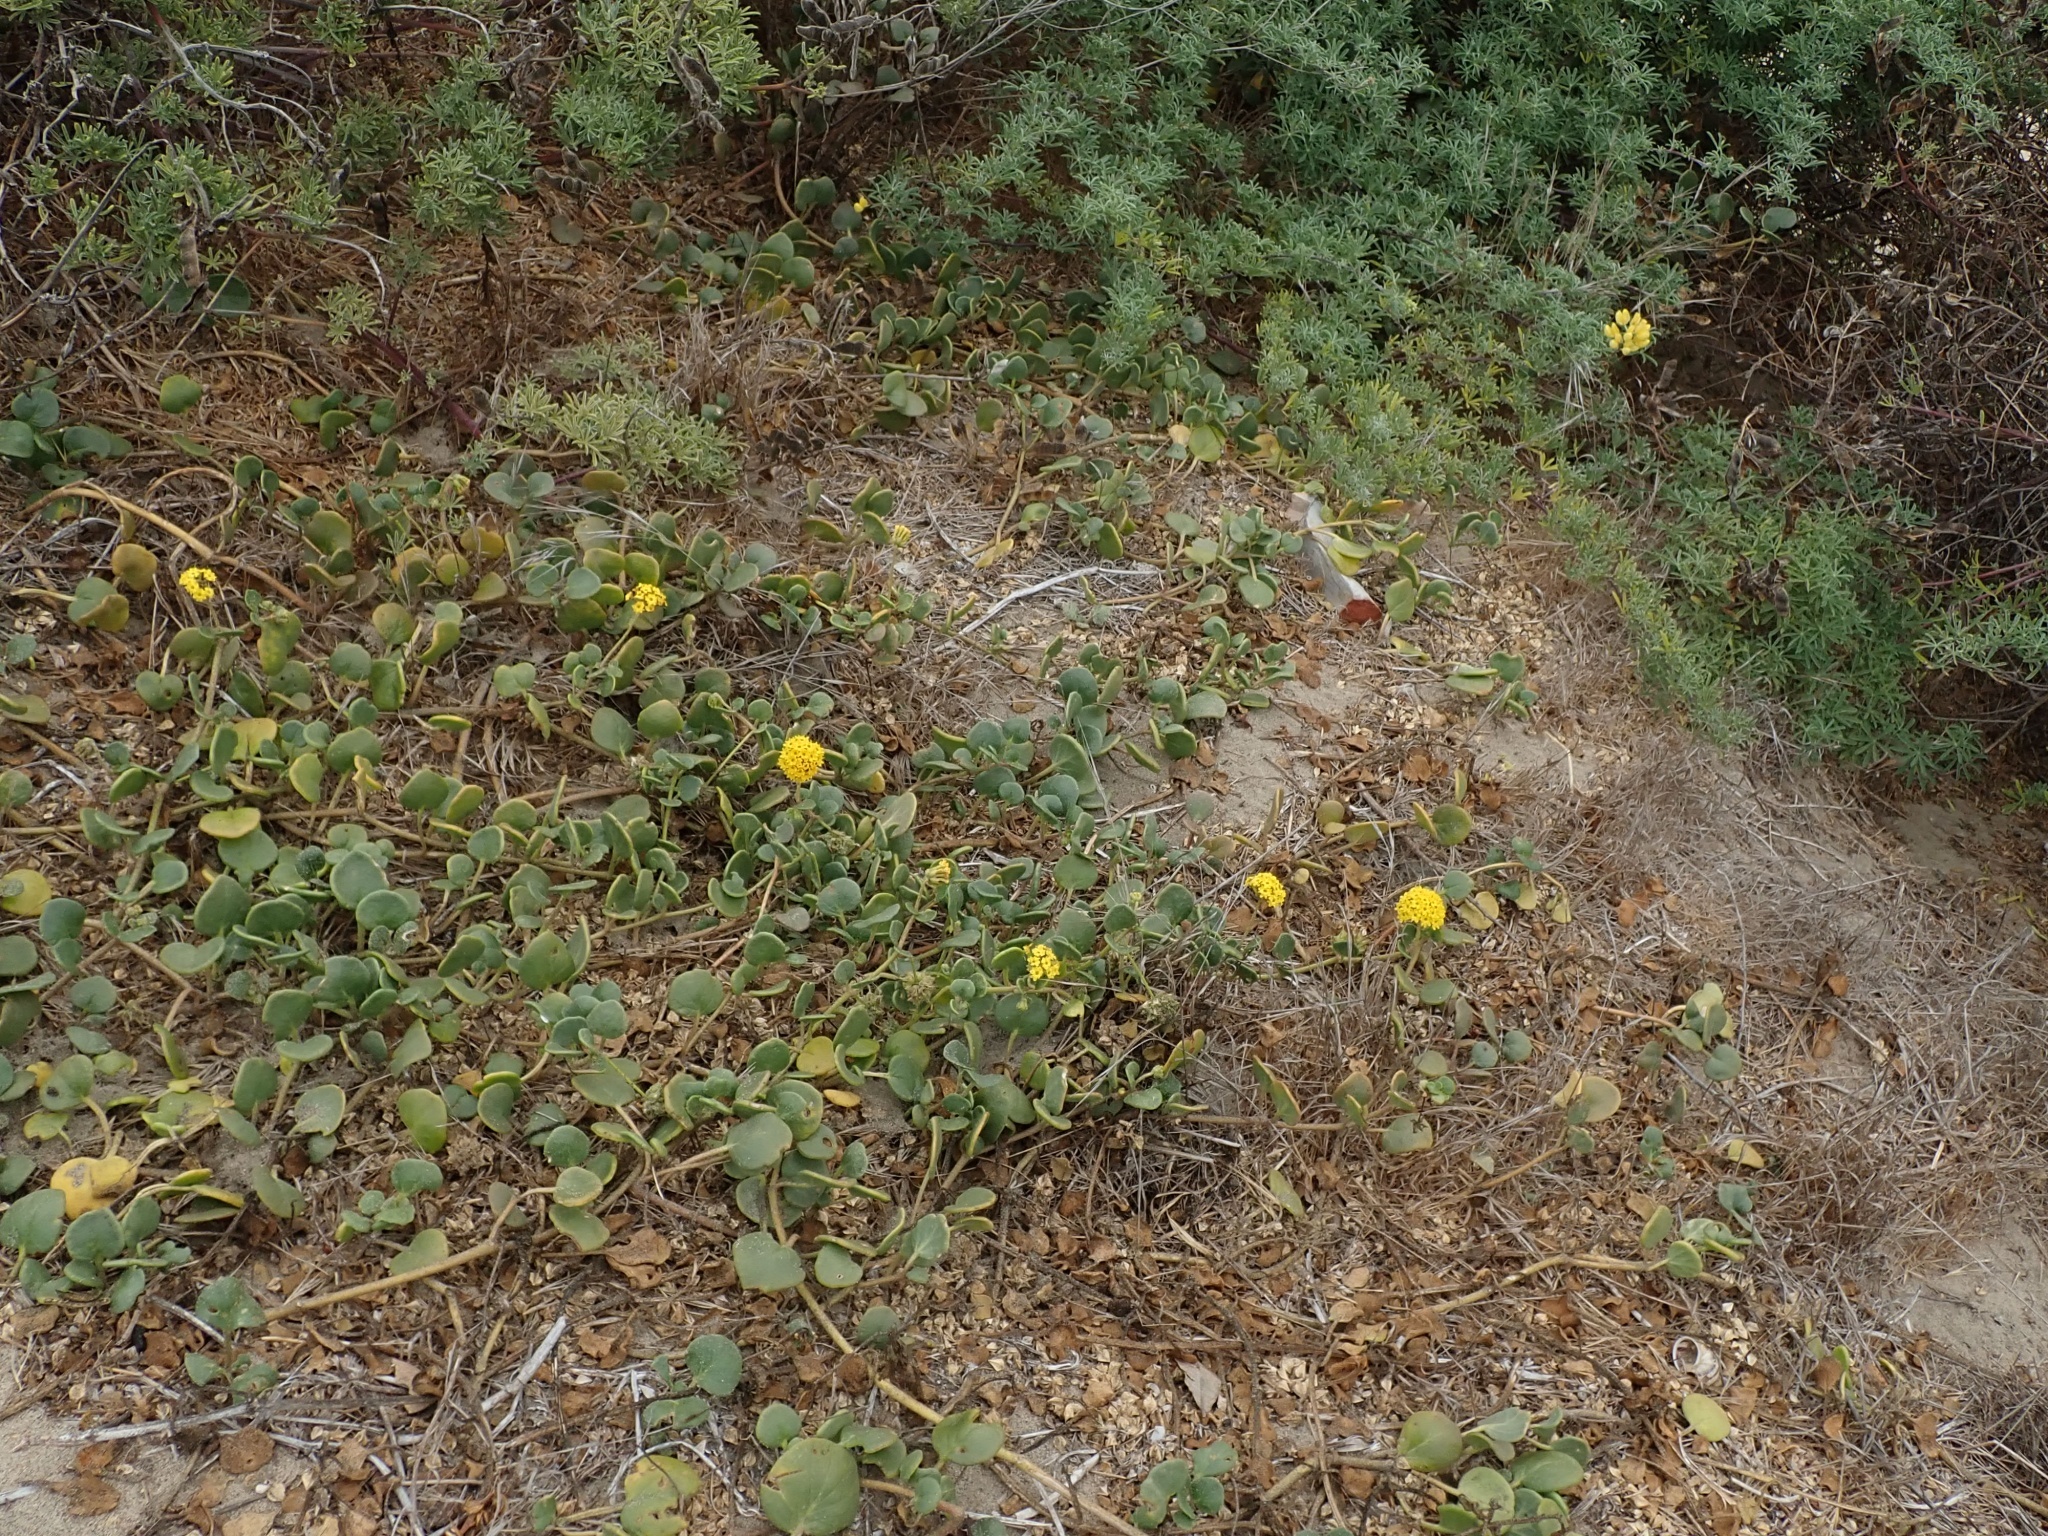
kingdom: Plantae
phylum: Tracheophyta
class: Magnoliopsida
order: Caryophyllales
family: Nyctaginaceae
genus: Abronia
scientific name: Abronia latifolia
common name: Yellow sand-verbena
